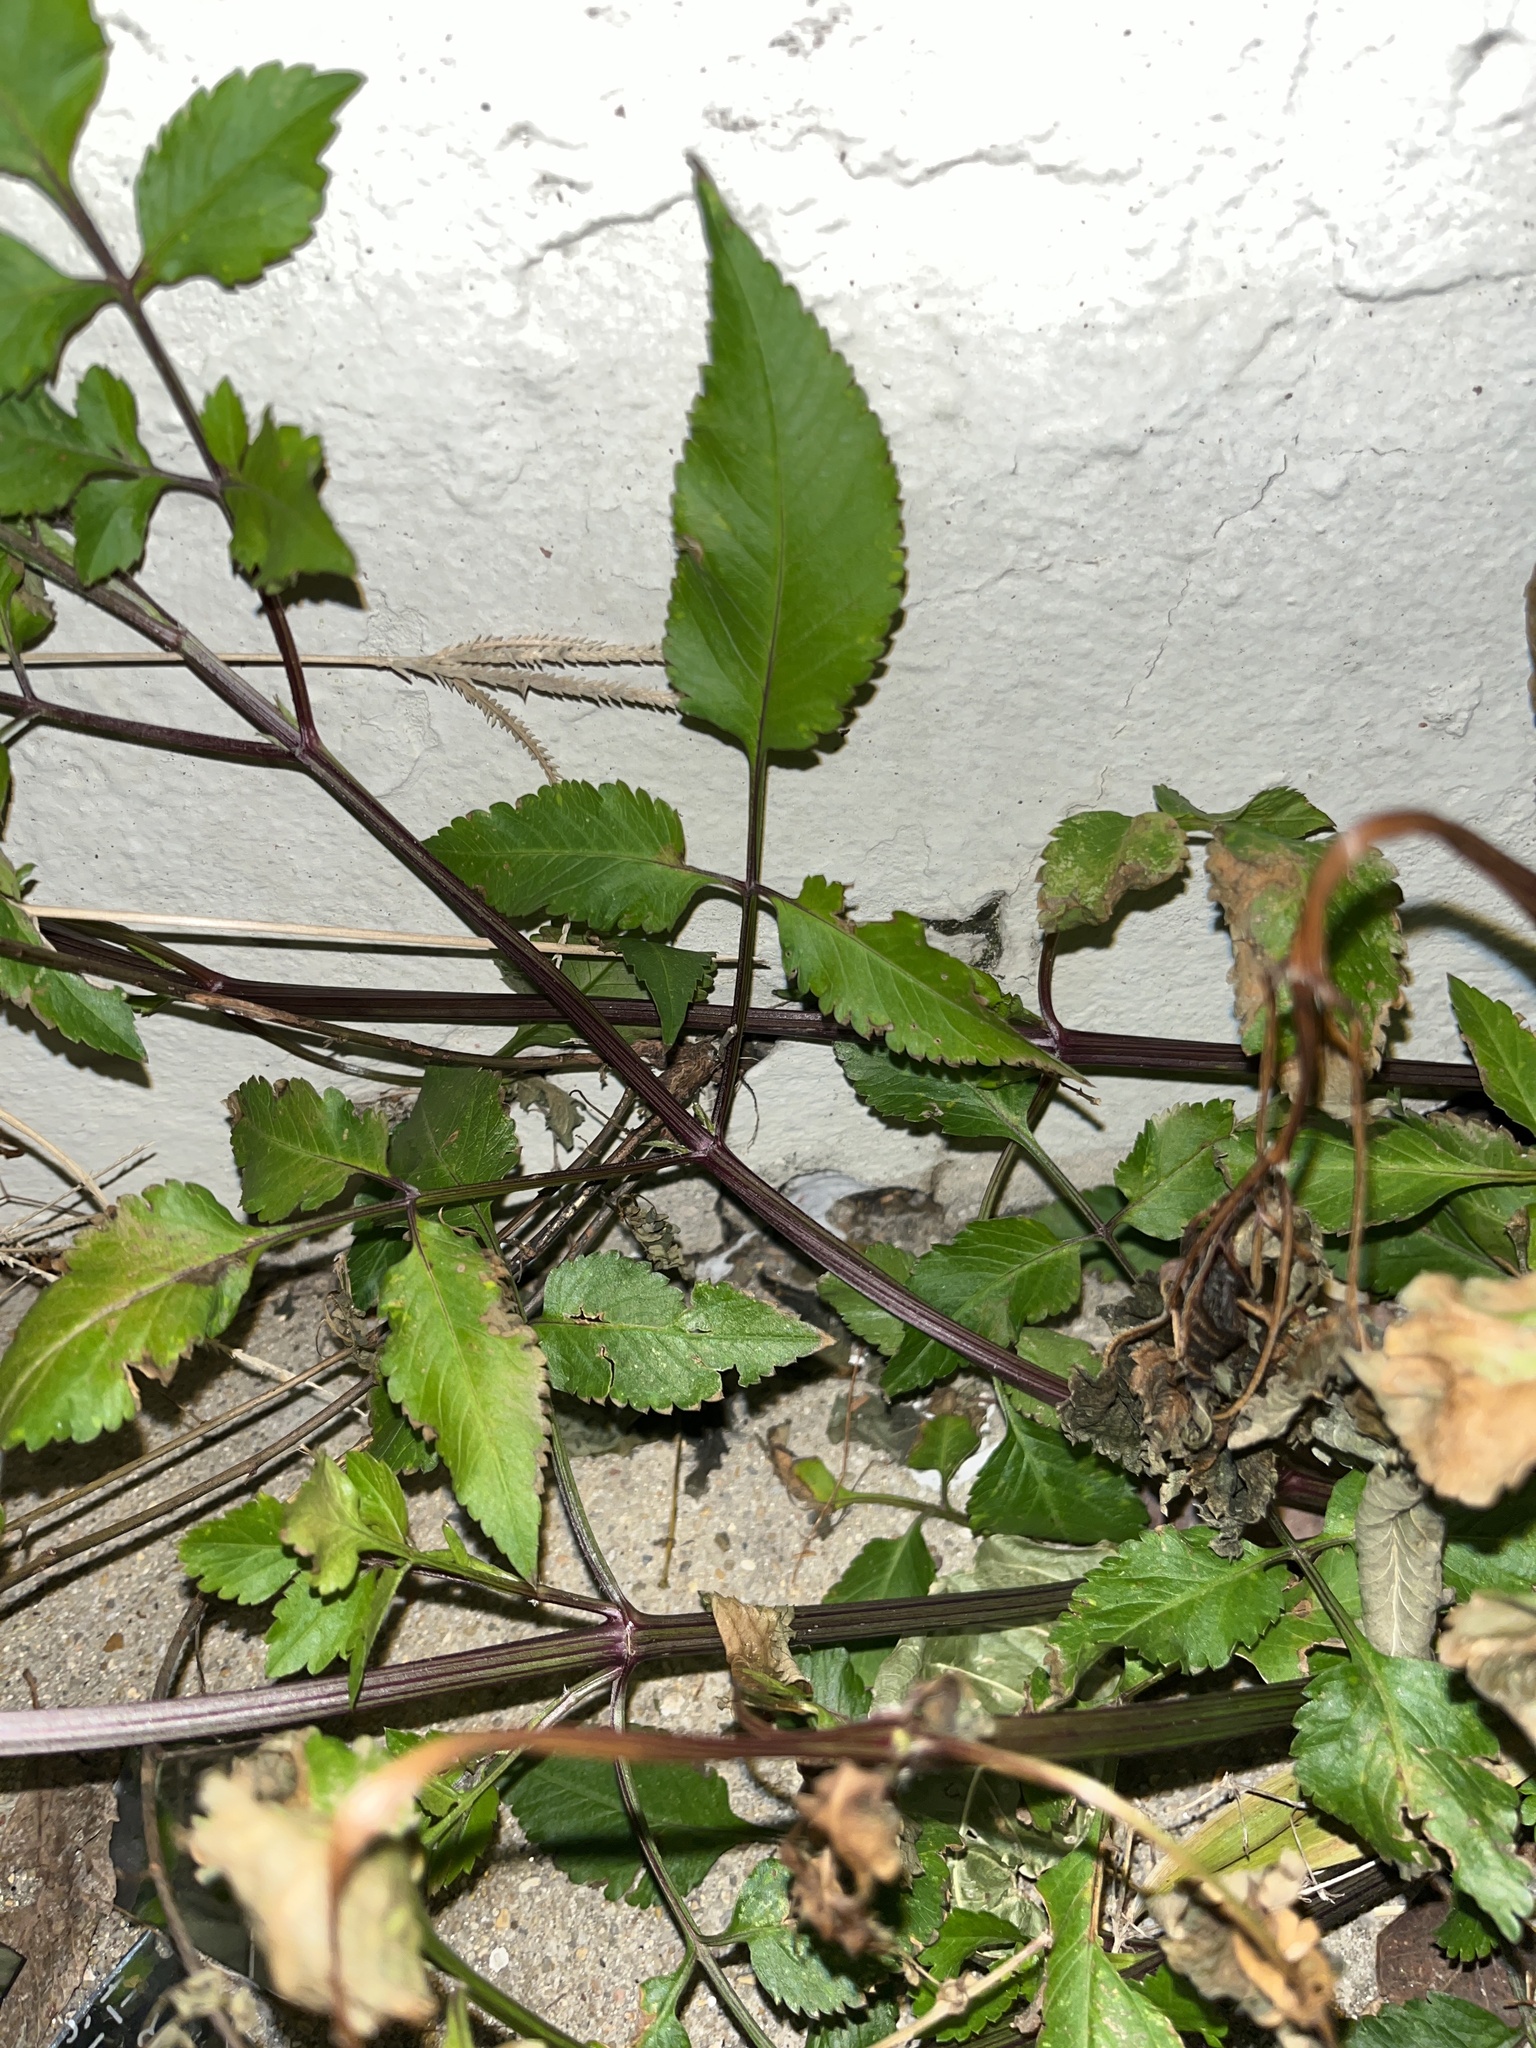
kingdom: Plantae
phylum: Tracheophyta
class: Magnoliopsida
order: Asterales
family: Asteraceae
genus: Bidens
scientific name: Bidens alba
